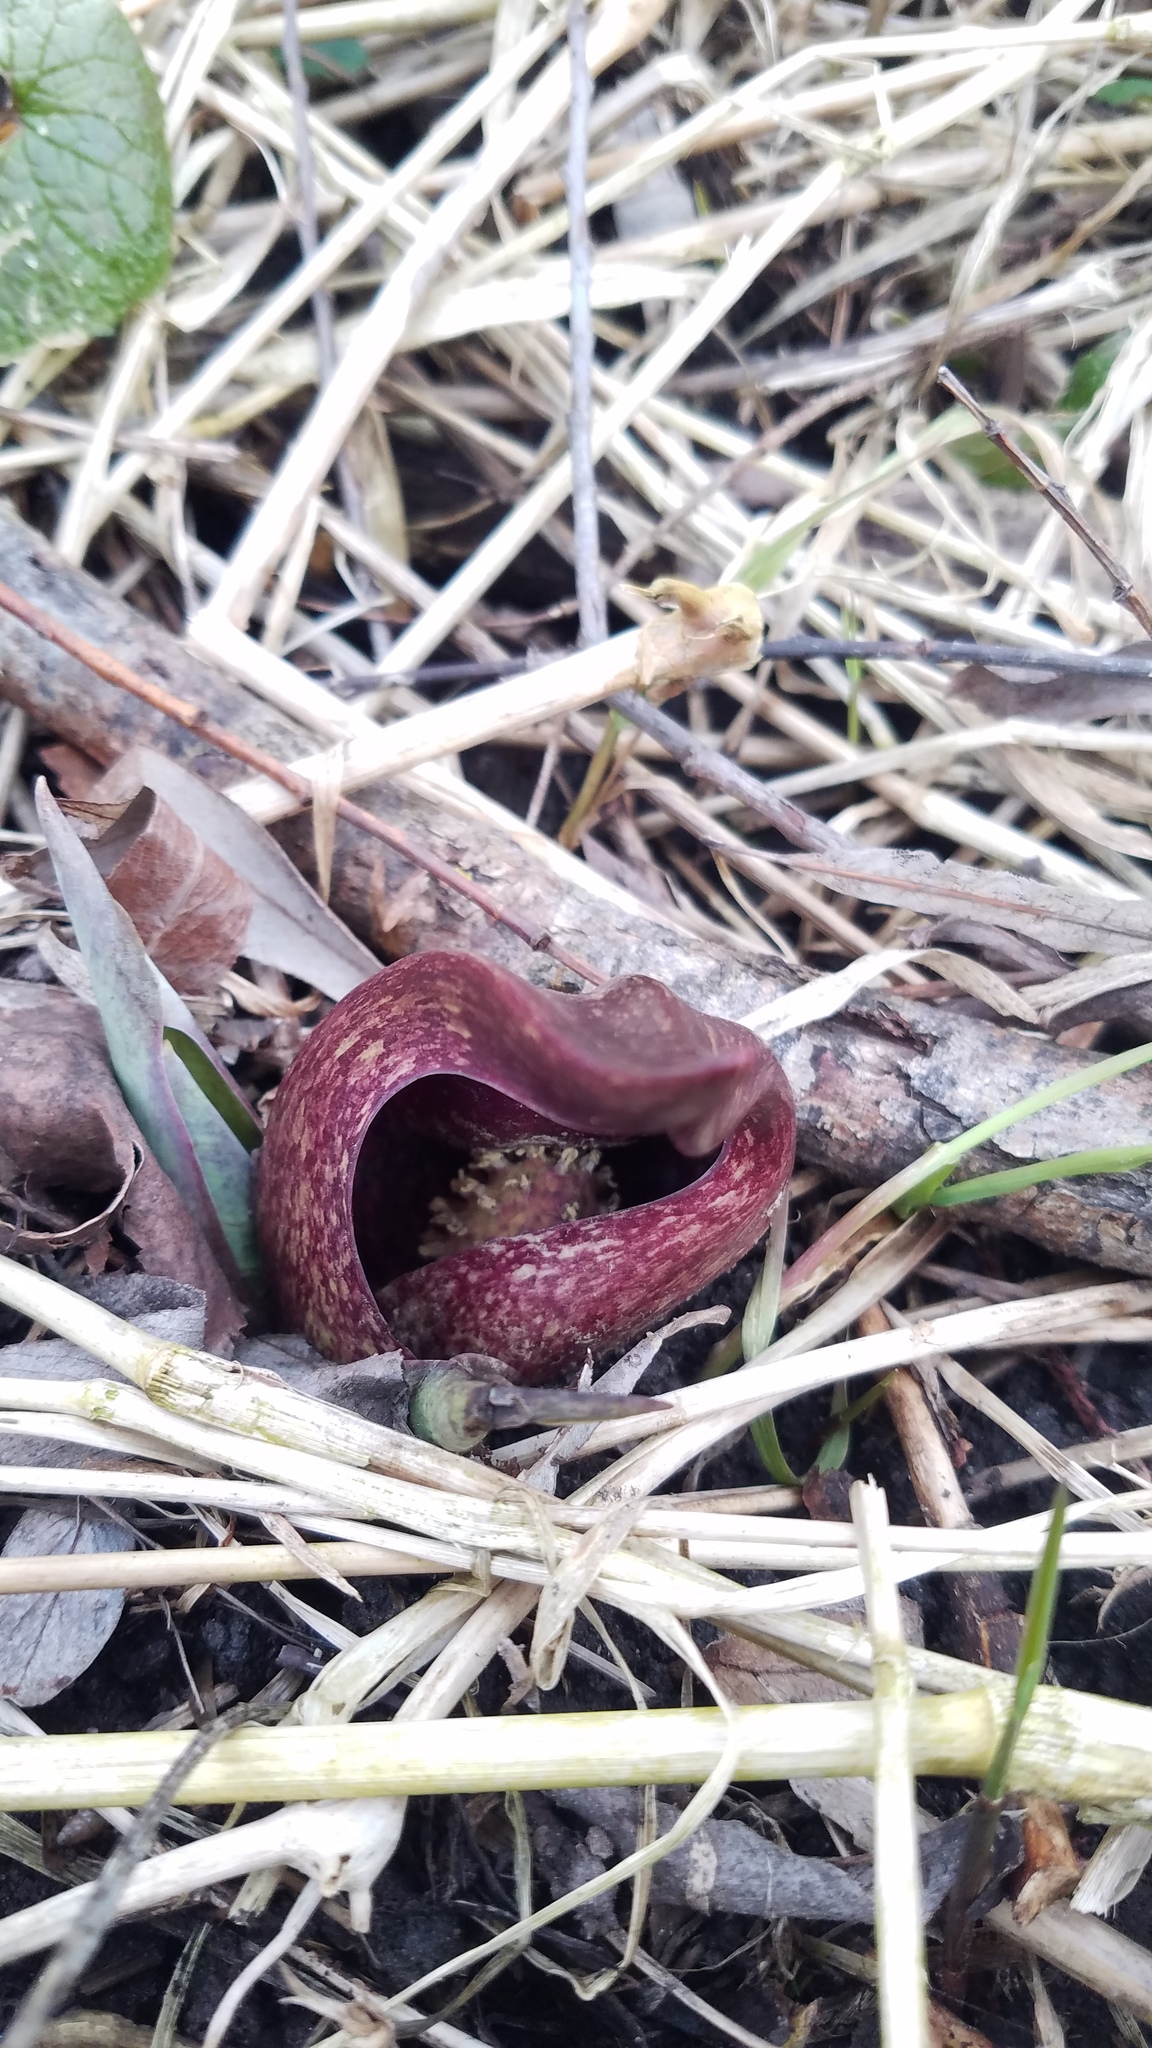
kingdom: Plantae
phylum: Tracheophyta
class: Liliopsida
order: Alismatales
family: Araceae
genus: Symplocarpus
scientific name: Symplocarpus foetidus
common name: Eastern skunk cabbage
